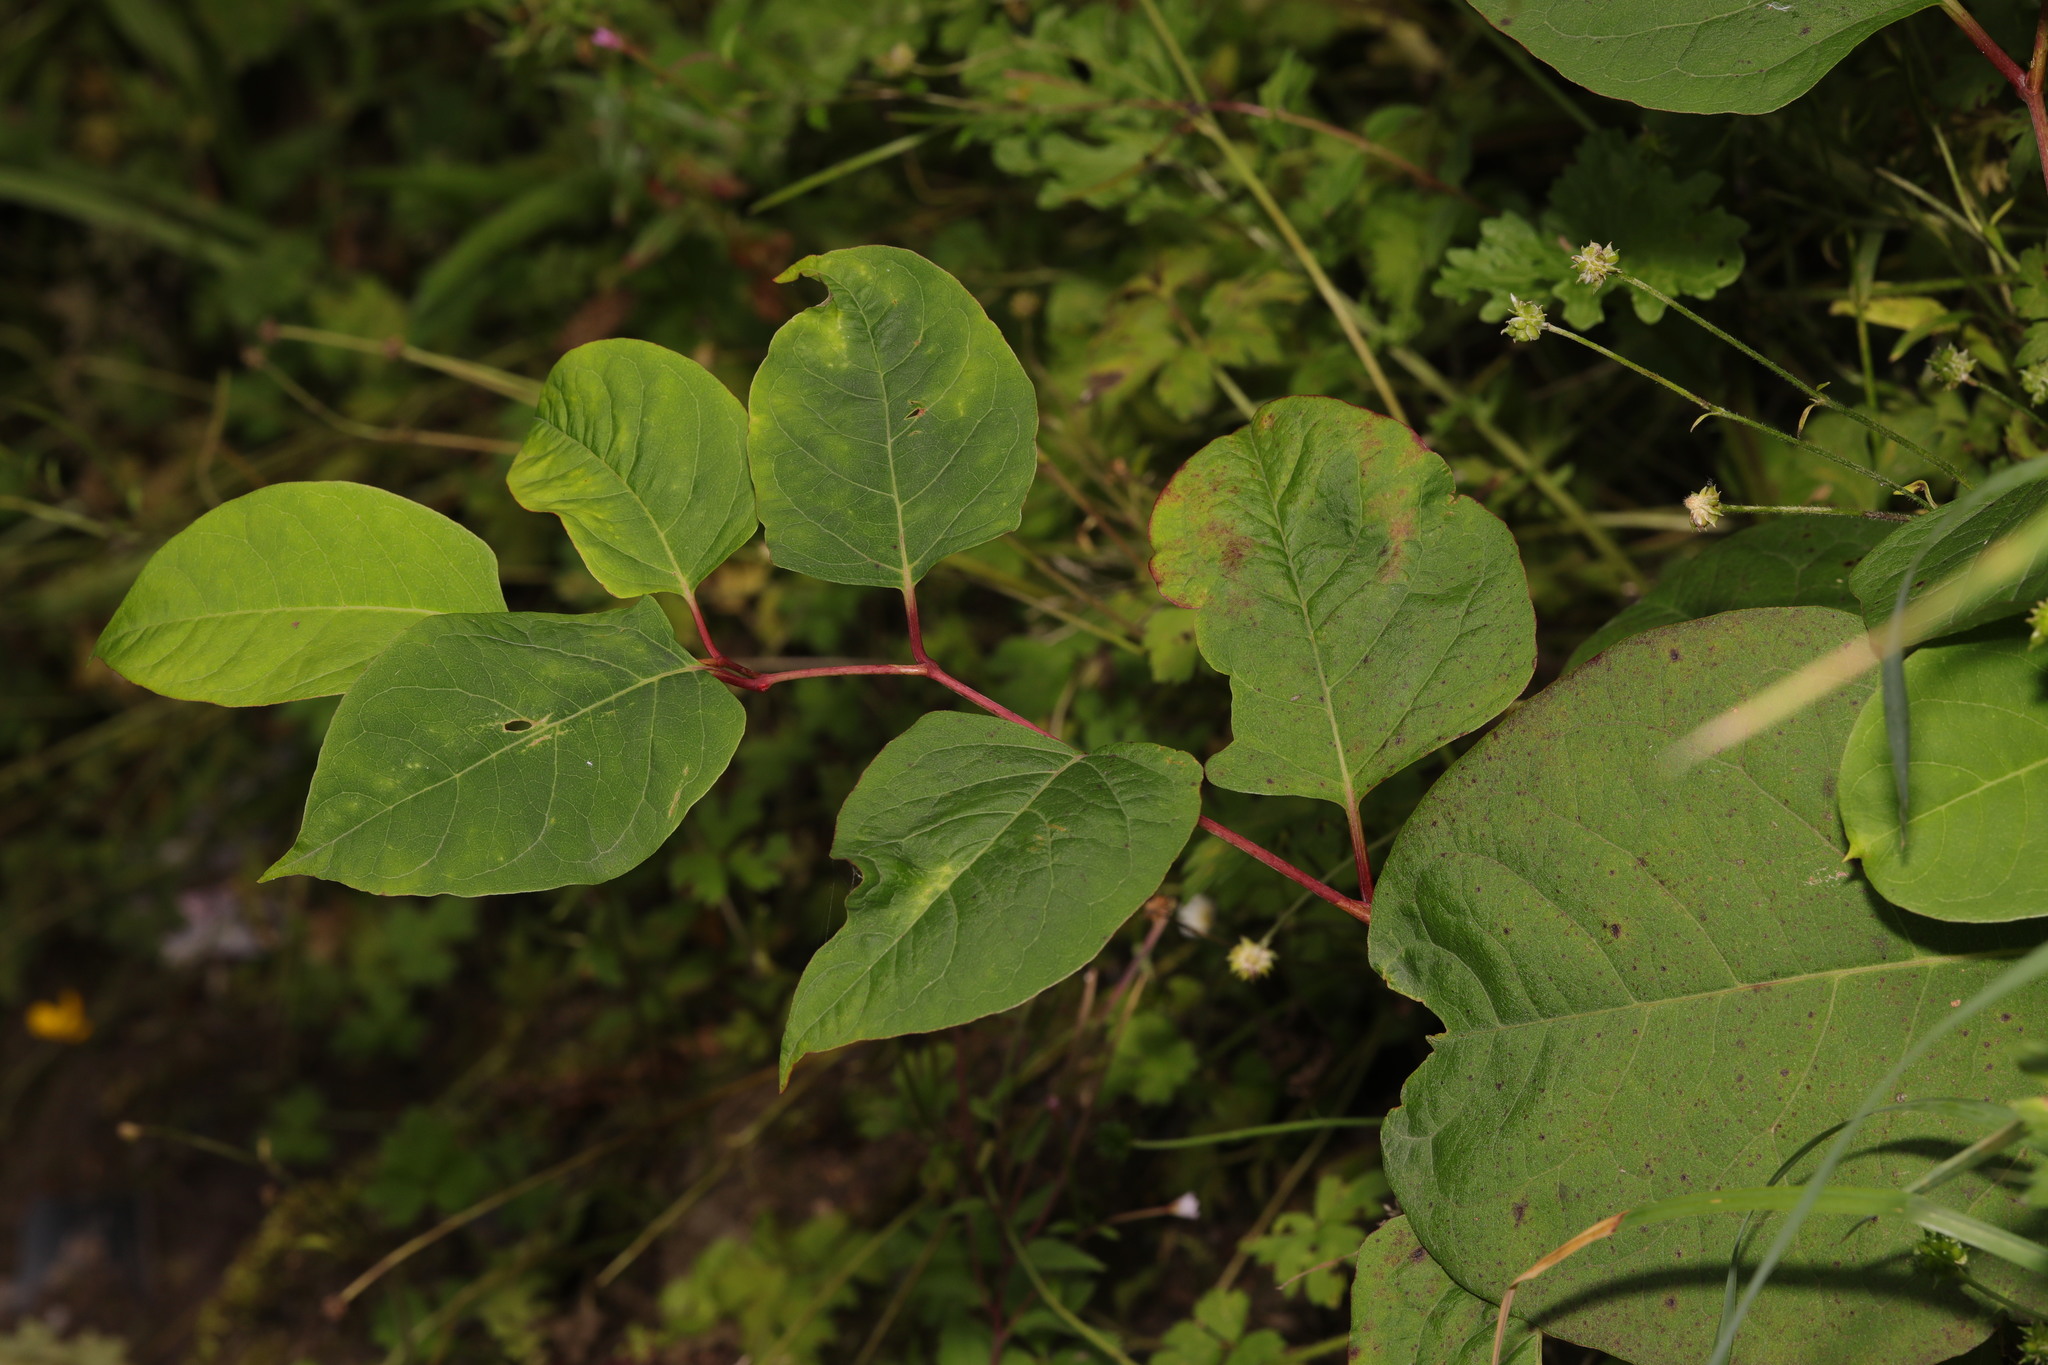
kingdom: Plantae
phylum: Tracheophyta
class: Magnoliopsida
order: Caryophyllales
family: Polygonaceae
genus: Reynoutria
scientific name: Reynoutria japonica
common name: Japanese knotweed
